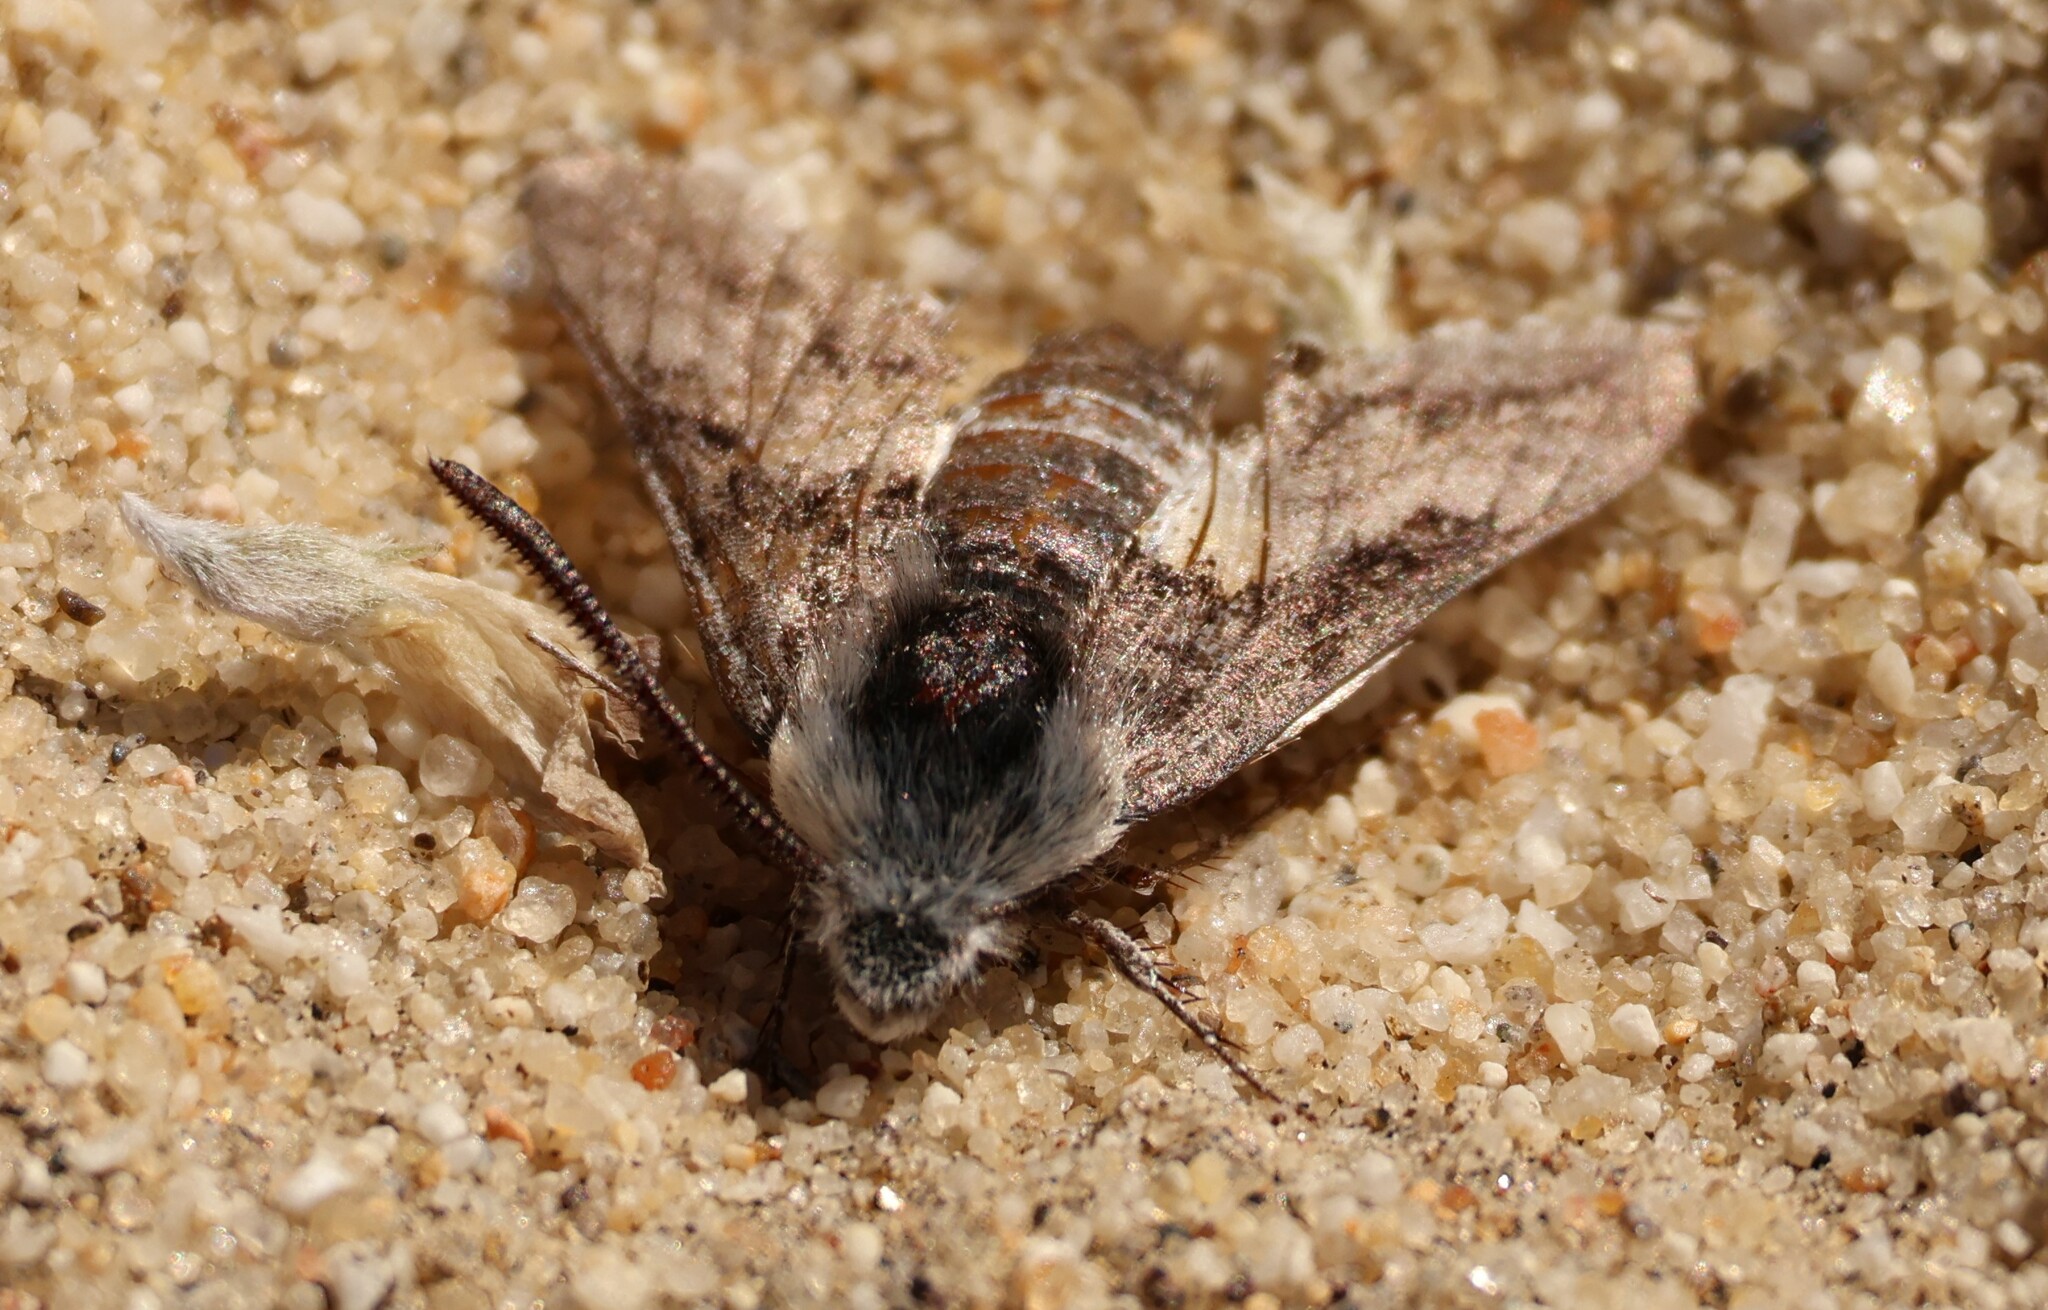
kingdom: Animalia
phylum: Arthropoda
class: Insecta
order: Lepidoptera
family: Sphingidae
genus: Euproserpinus
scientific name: Euproserpinus phaeton
